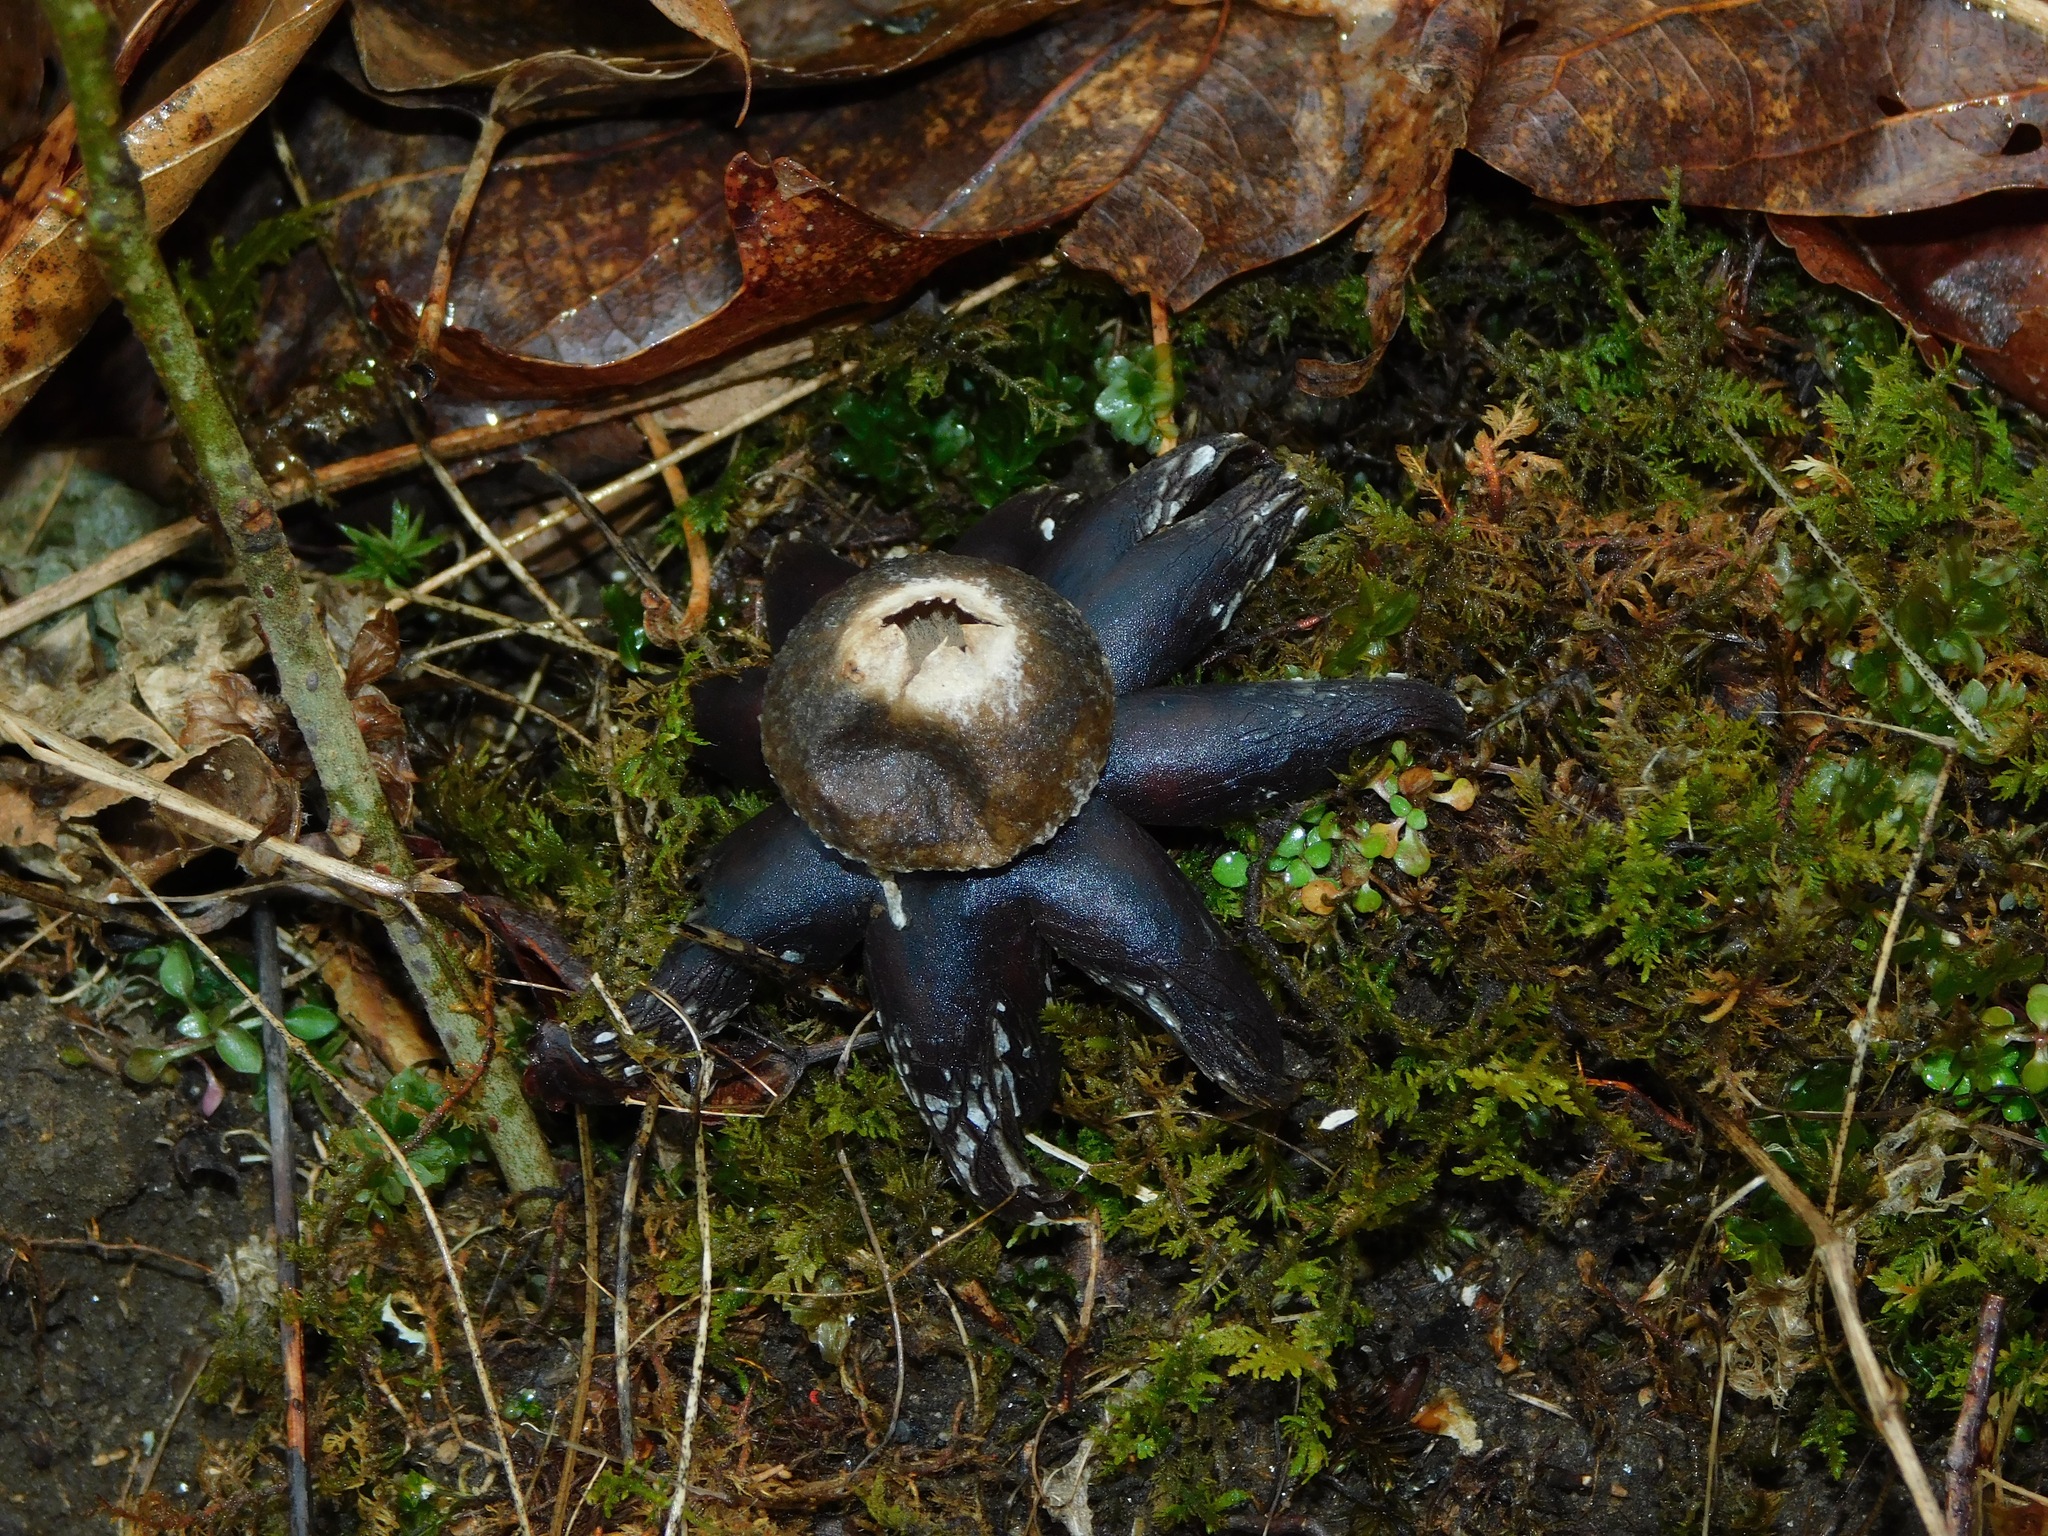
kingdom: Fungi
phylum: Basidiomycota
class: Agaricomycetes
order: Boletales
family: Diplocystidiaceae
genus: Astraeus
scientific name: Astraeus hygrometricus
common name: Barometer earthstar
